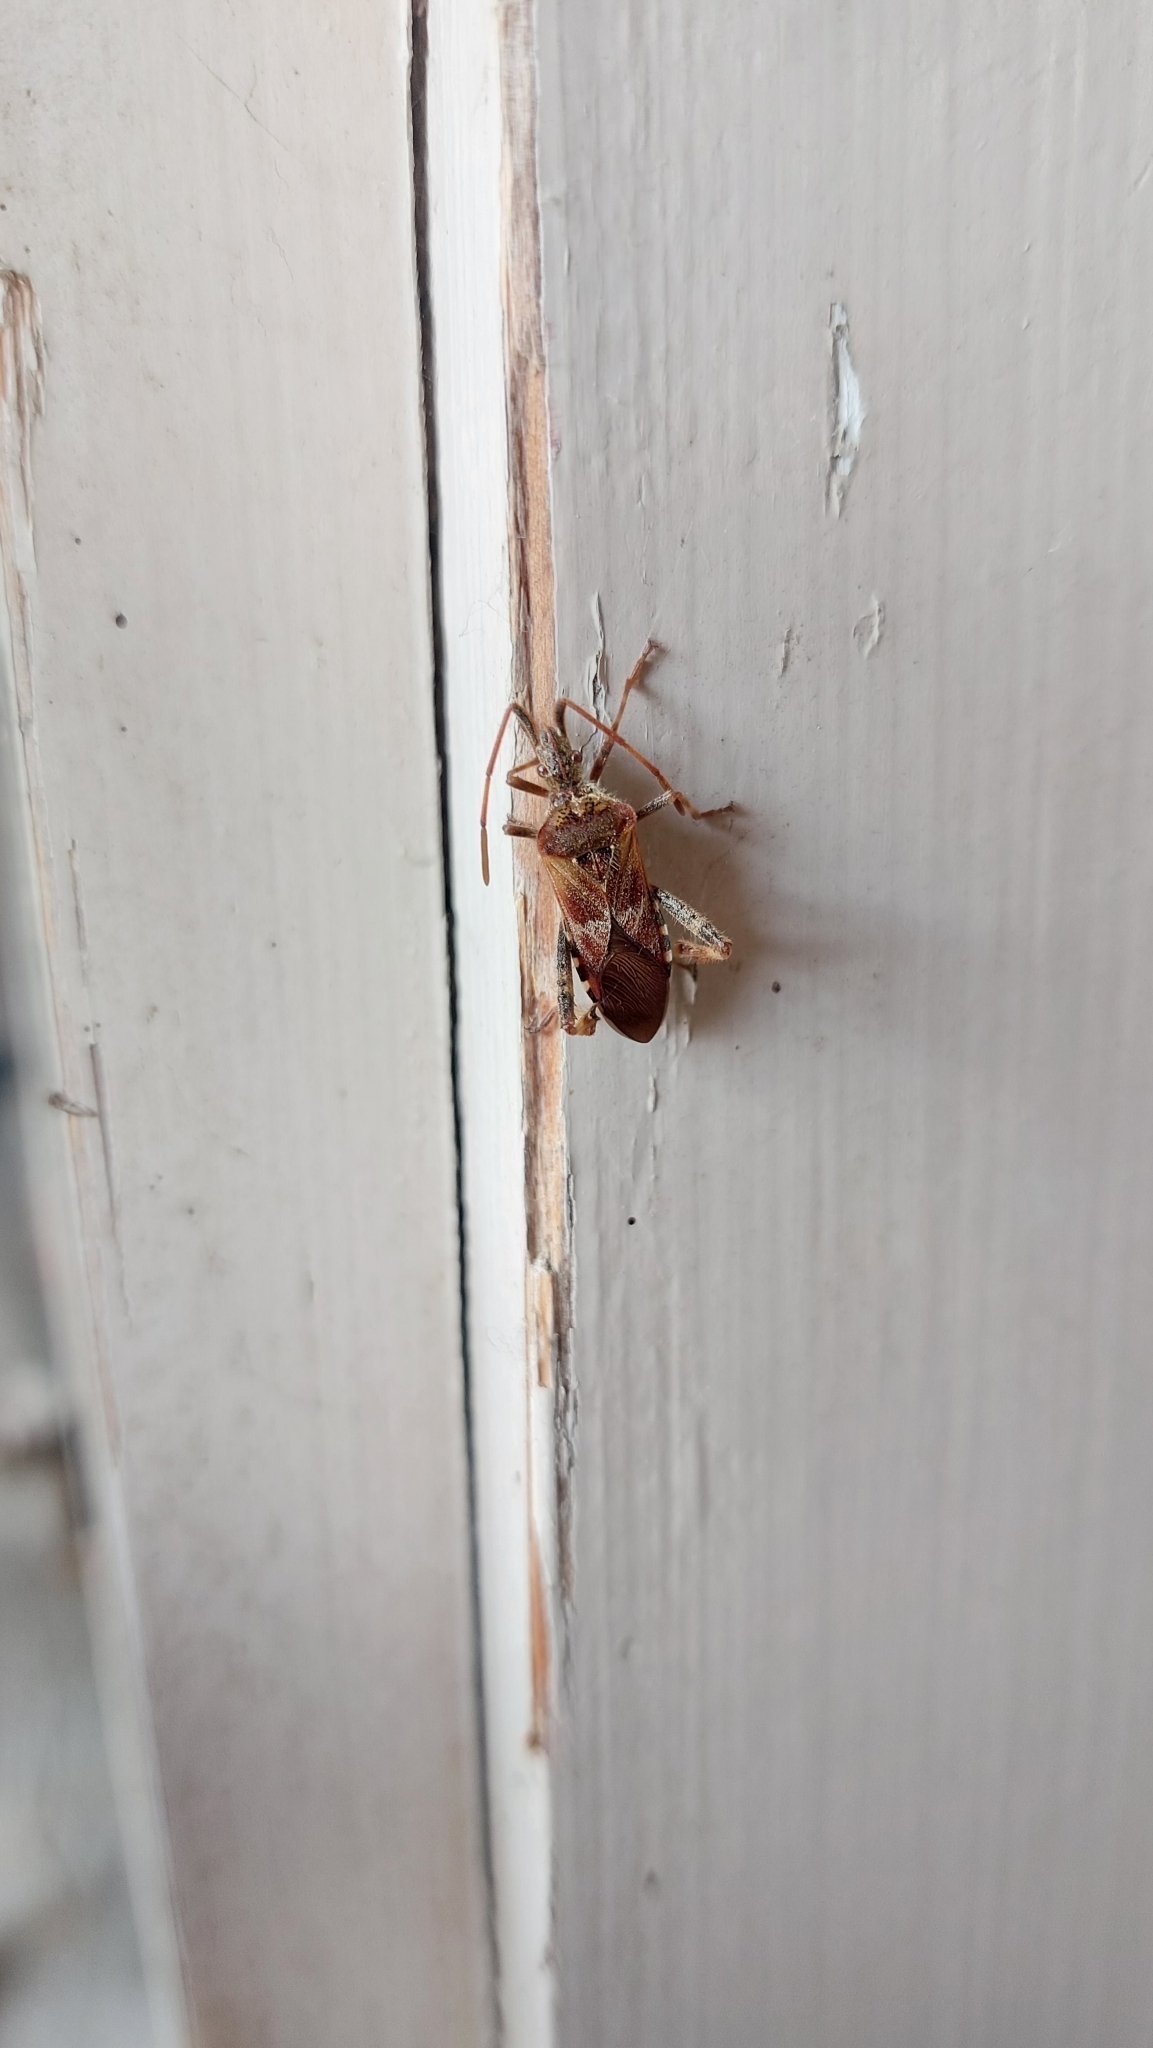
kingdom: Animalia
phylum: Arthropoda
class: Insecta
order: Hemiptera
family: Coreidae
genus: Leptoglossus
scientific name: Leptoglossus occidentalis
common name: Western conifer-seed bug
